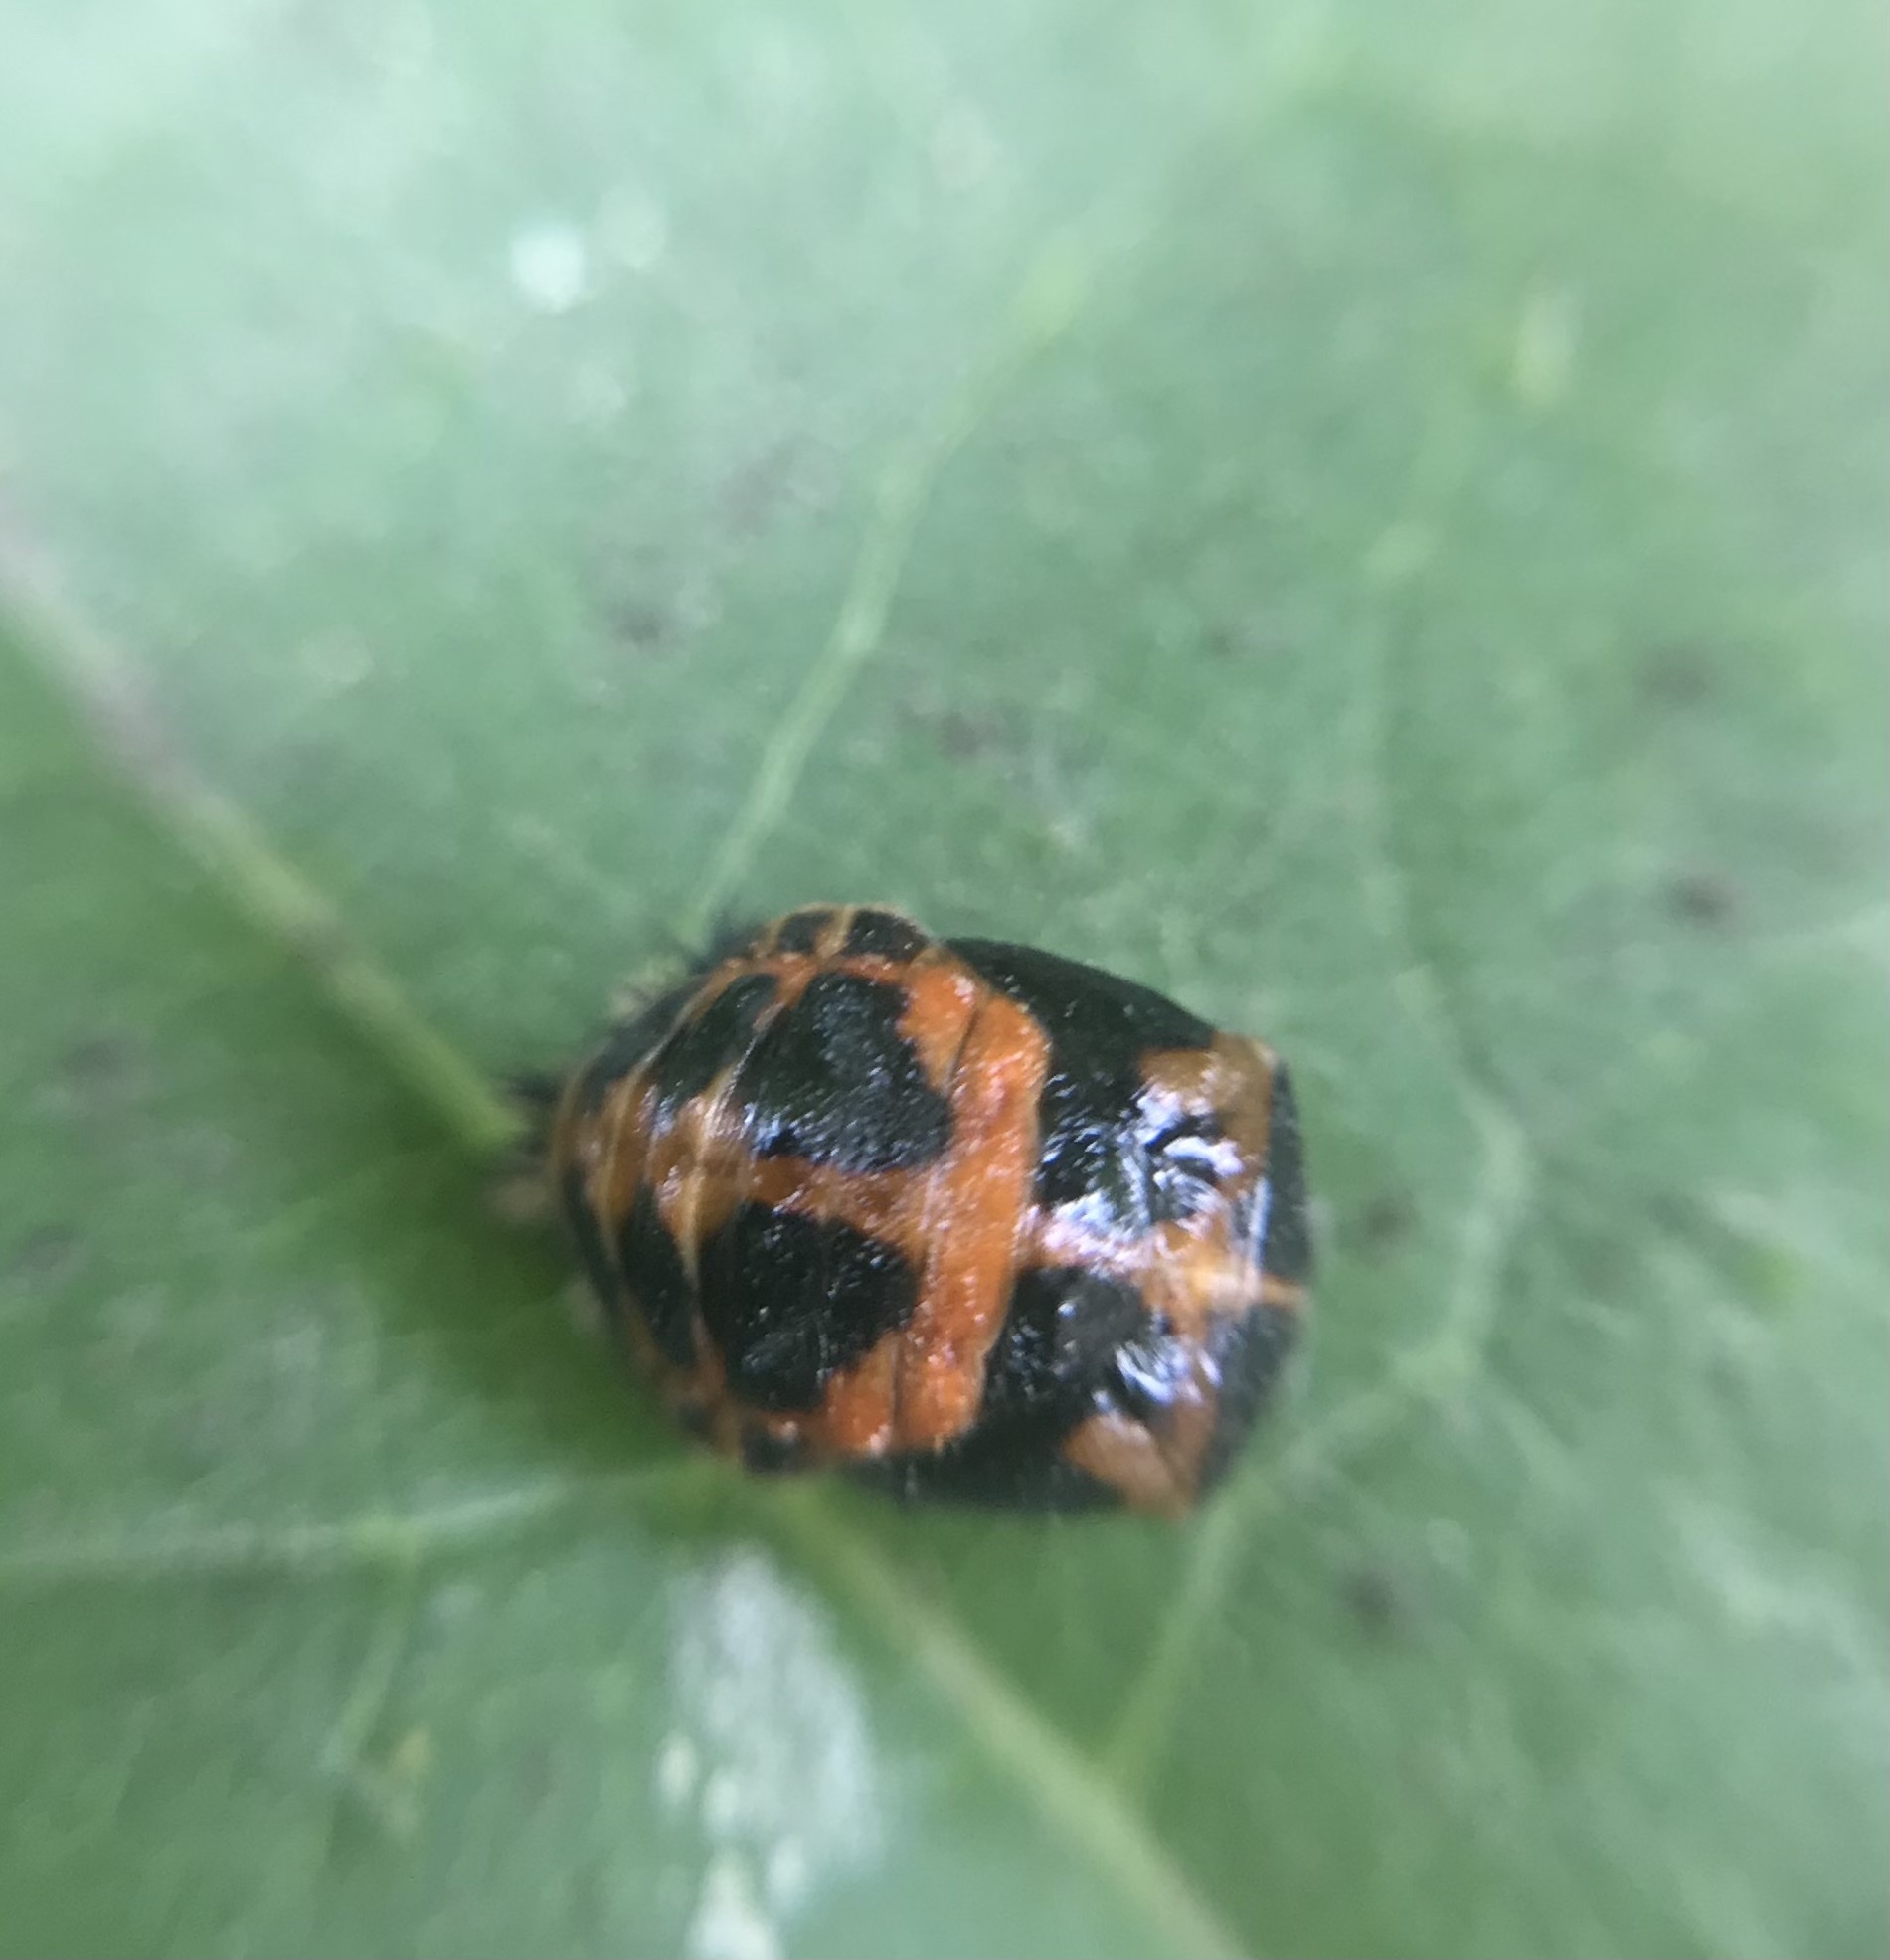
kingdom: Animalia
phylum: Arthropoda
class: Insecta
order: Coleoptera
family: Coccinellidae
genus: Harmonia
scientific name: Harmonia axyridis
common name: Harlequin ladybird
